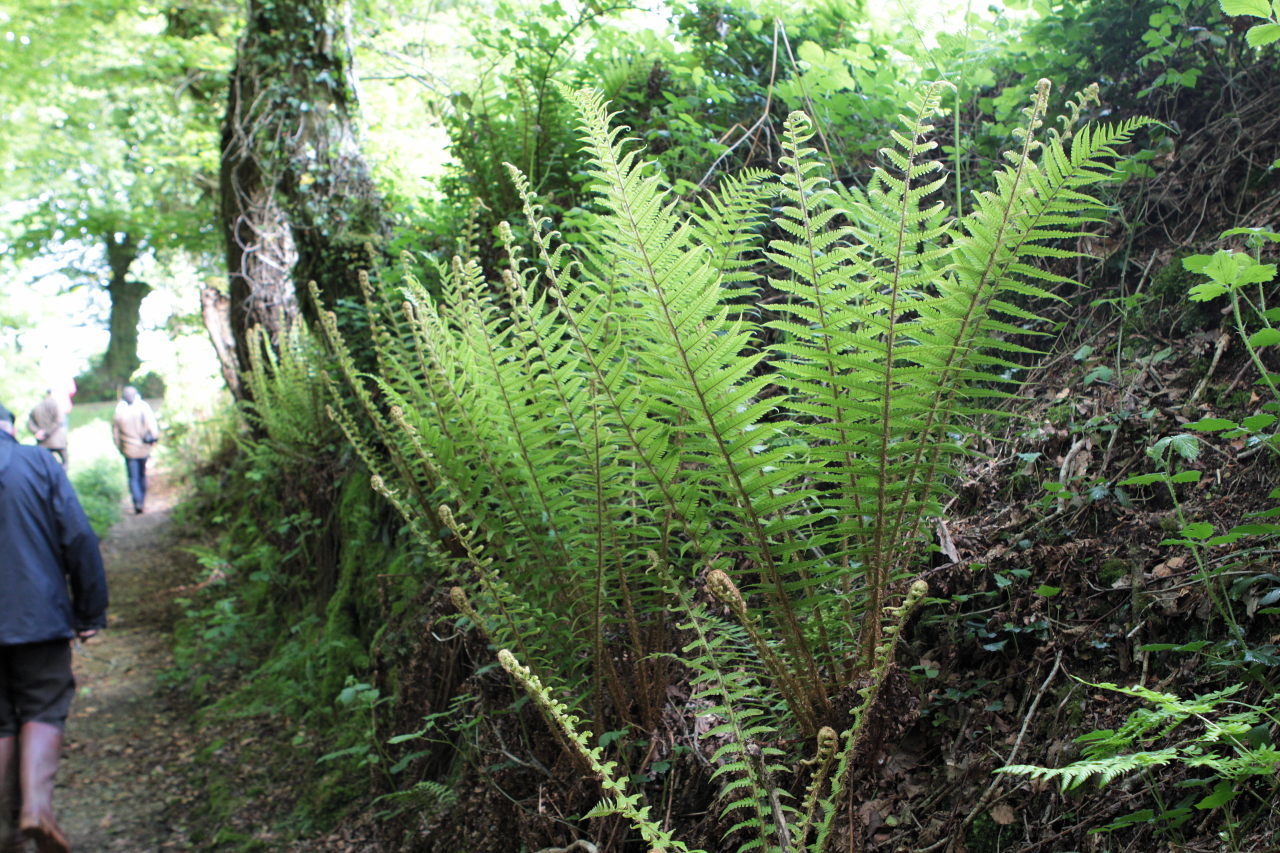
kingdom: Plantae
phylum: Tracheophyta
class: Polypodiopsida
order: Polypodiales
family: Dryopteridaceae
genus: Dryopteris
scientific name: Dryopteris affinis
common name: Scaly male fern
